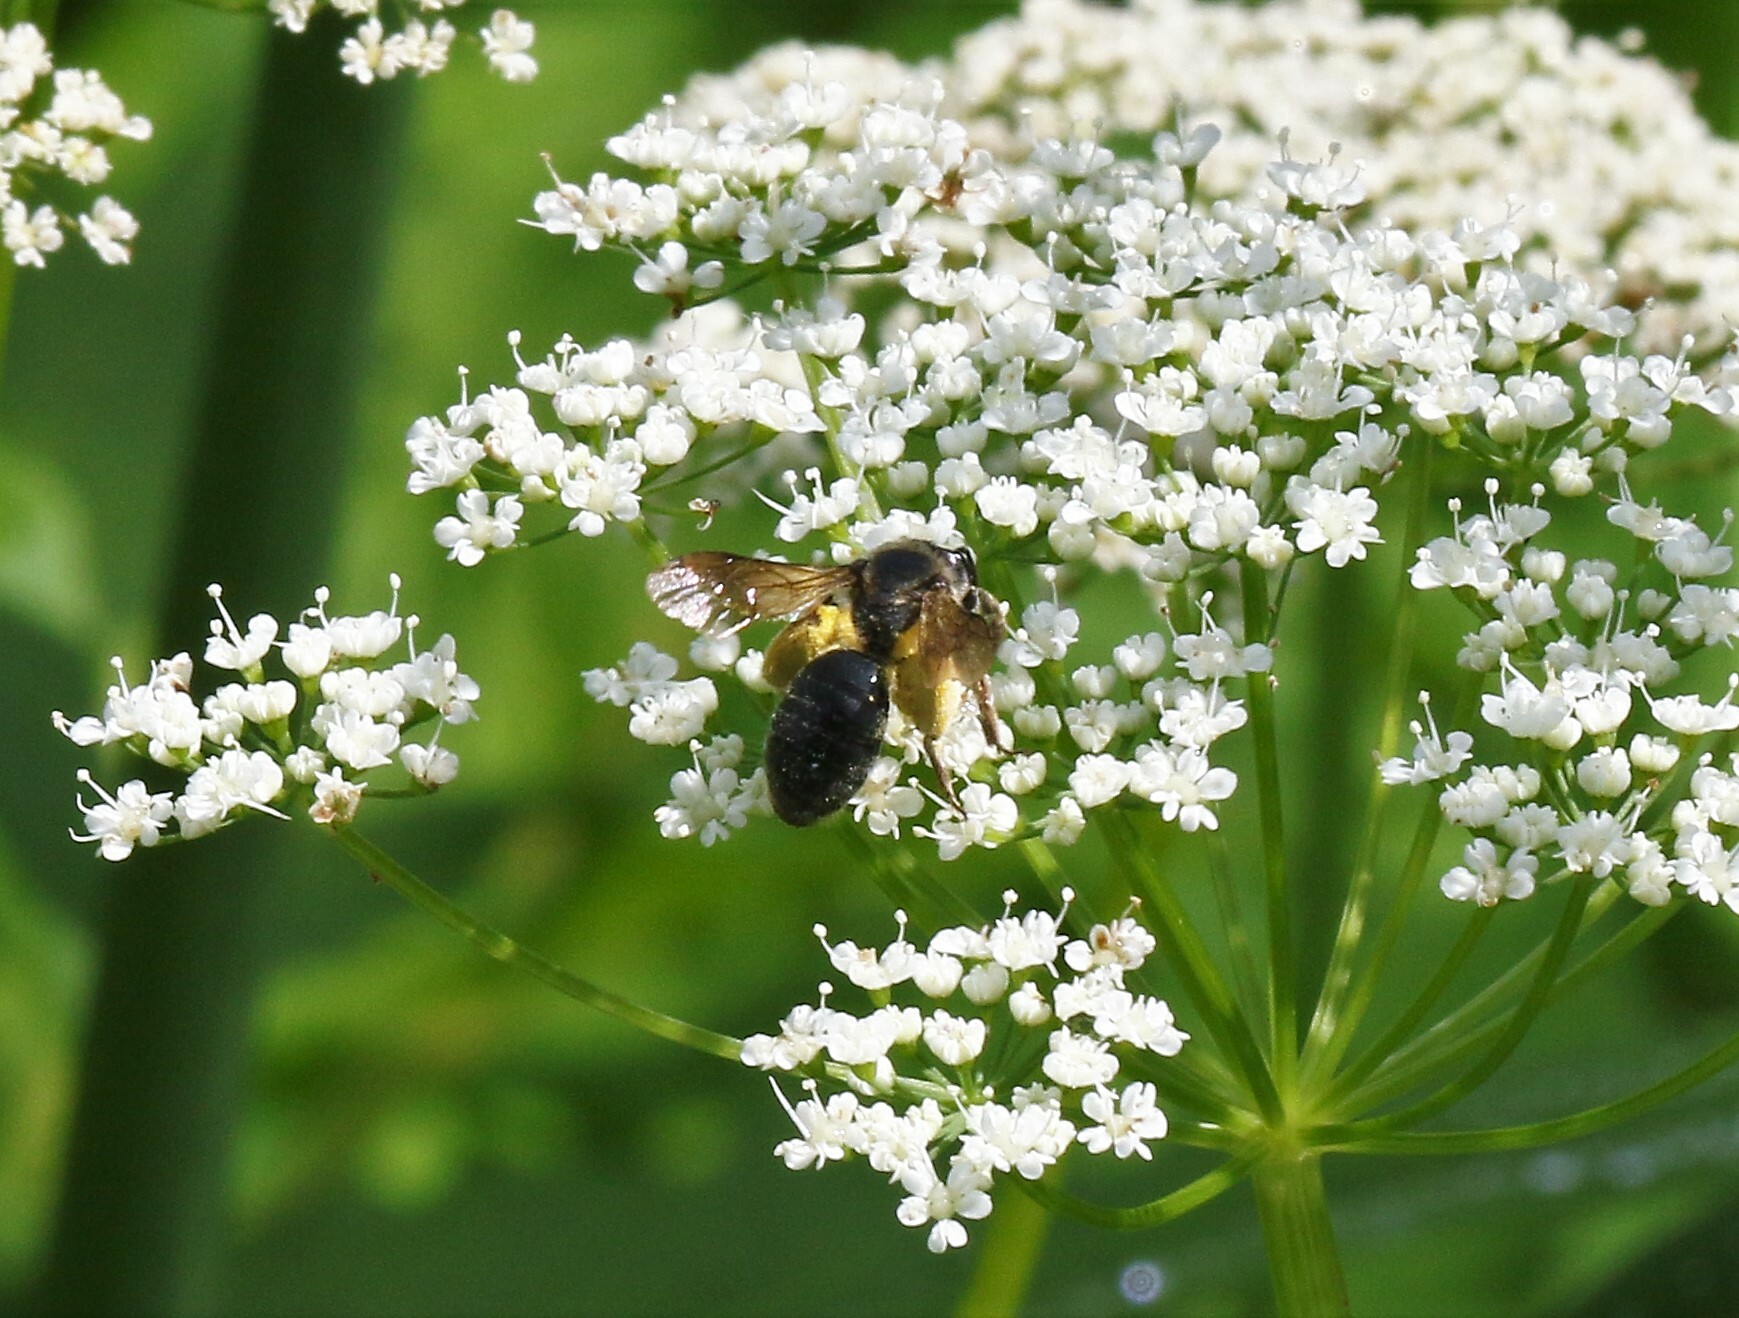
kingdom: Animalia
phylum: Arthropoda
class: Insecta
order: Hymenoptera
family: Andrenidae
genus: Andrena
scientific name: Andrena crataegi
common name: Hawthorn mining bee
